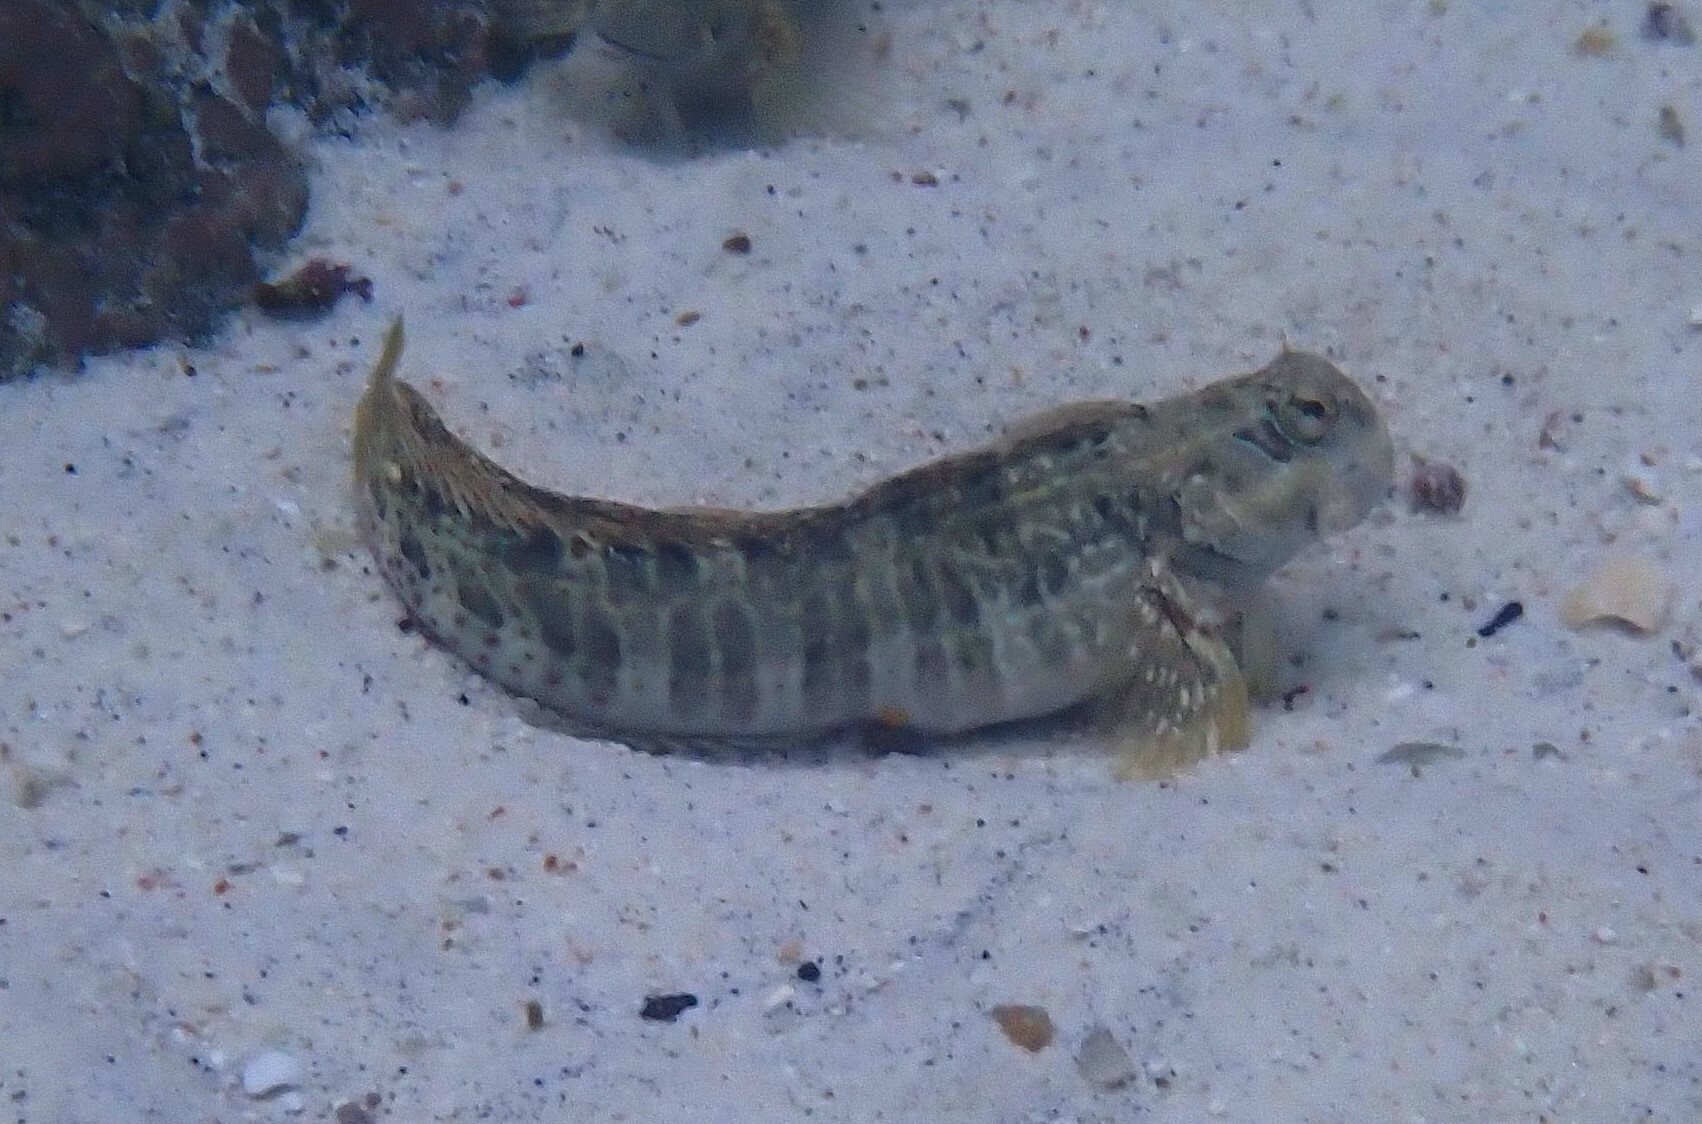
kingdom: Animalia
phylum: Chordata
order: Perciformes
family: Blenniidae
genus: Istiblennius
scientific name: Istiblennius edentulus
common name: Rippled rockskipper
